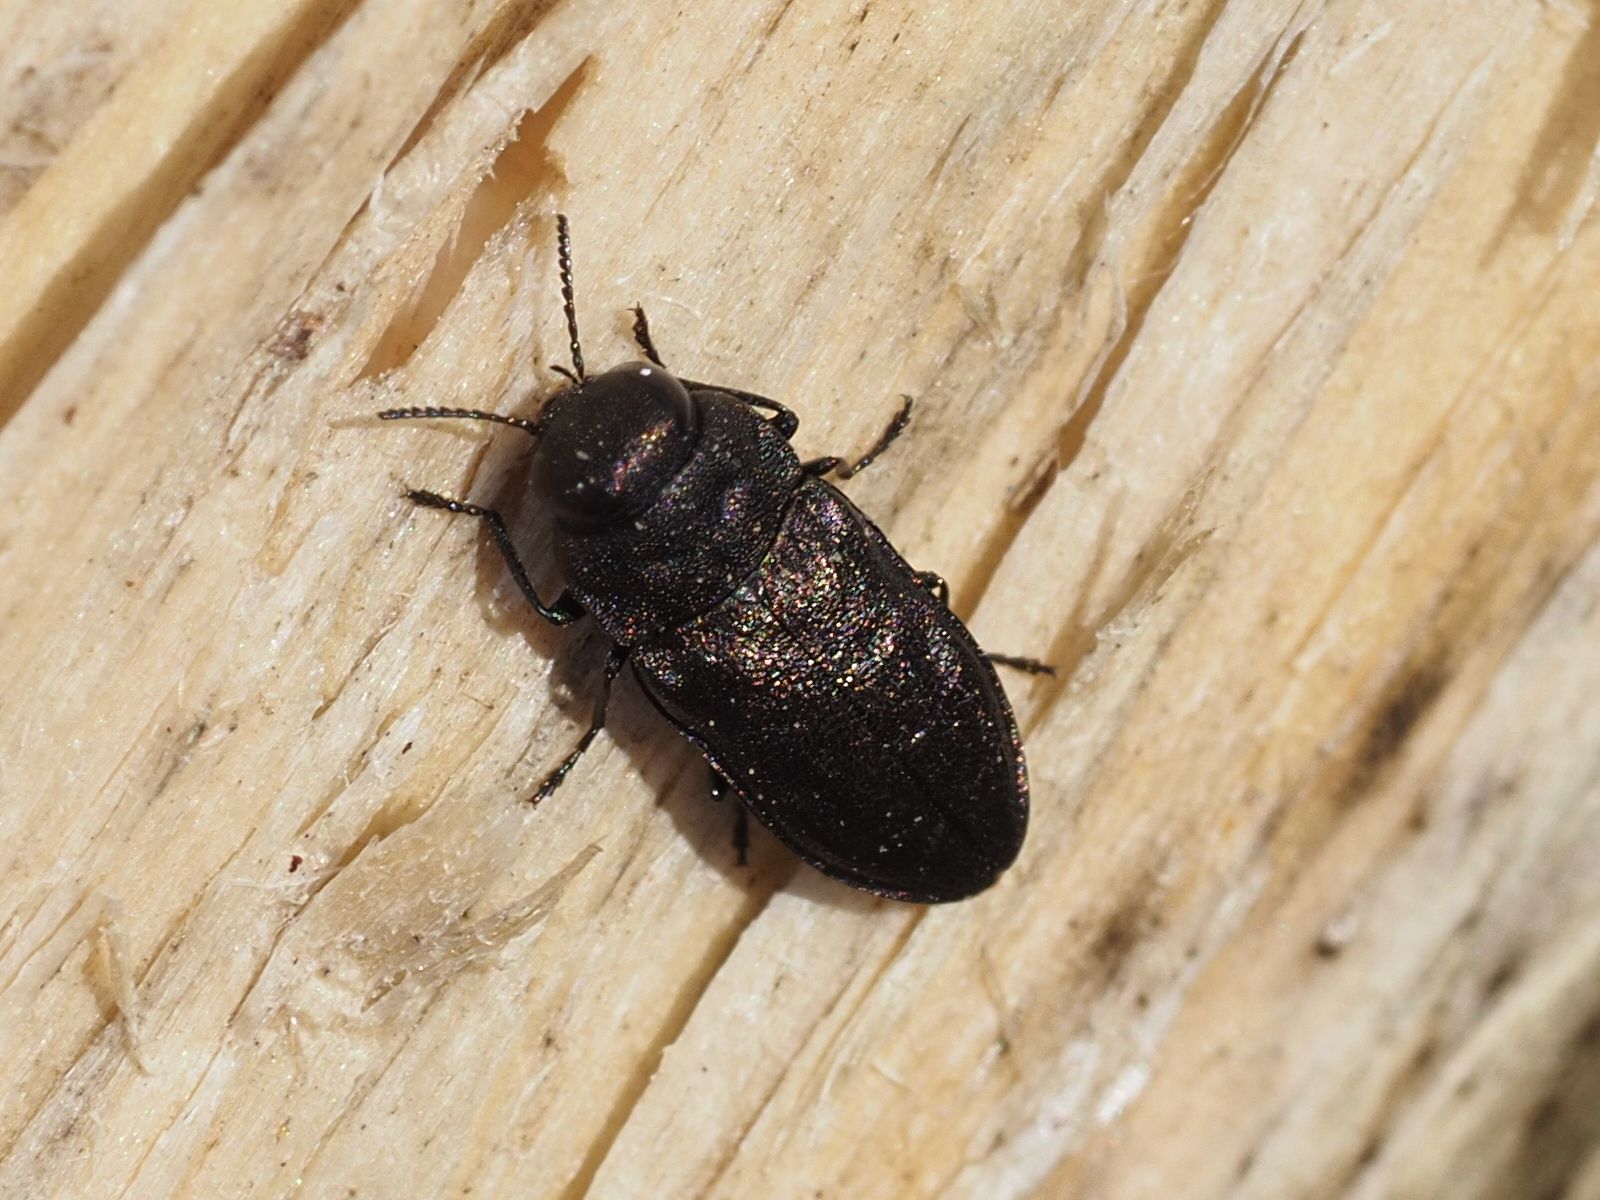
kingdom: Animalia
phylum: Arthropoda
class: Insecta
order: Coleoptera
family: Buprestidae
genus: Anthaxia
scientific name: Anthaxia quadripunctata
